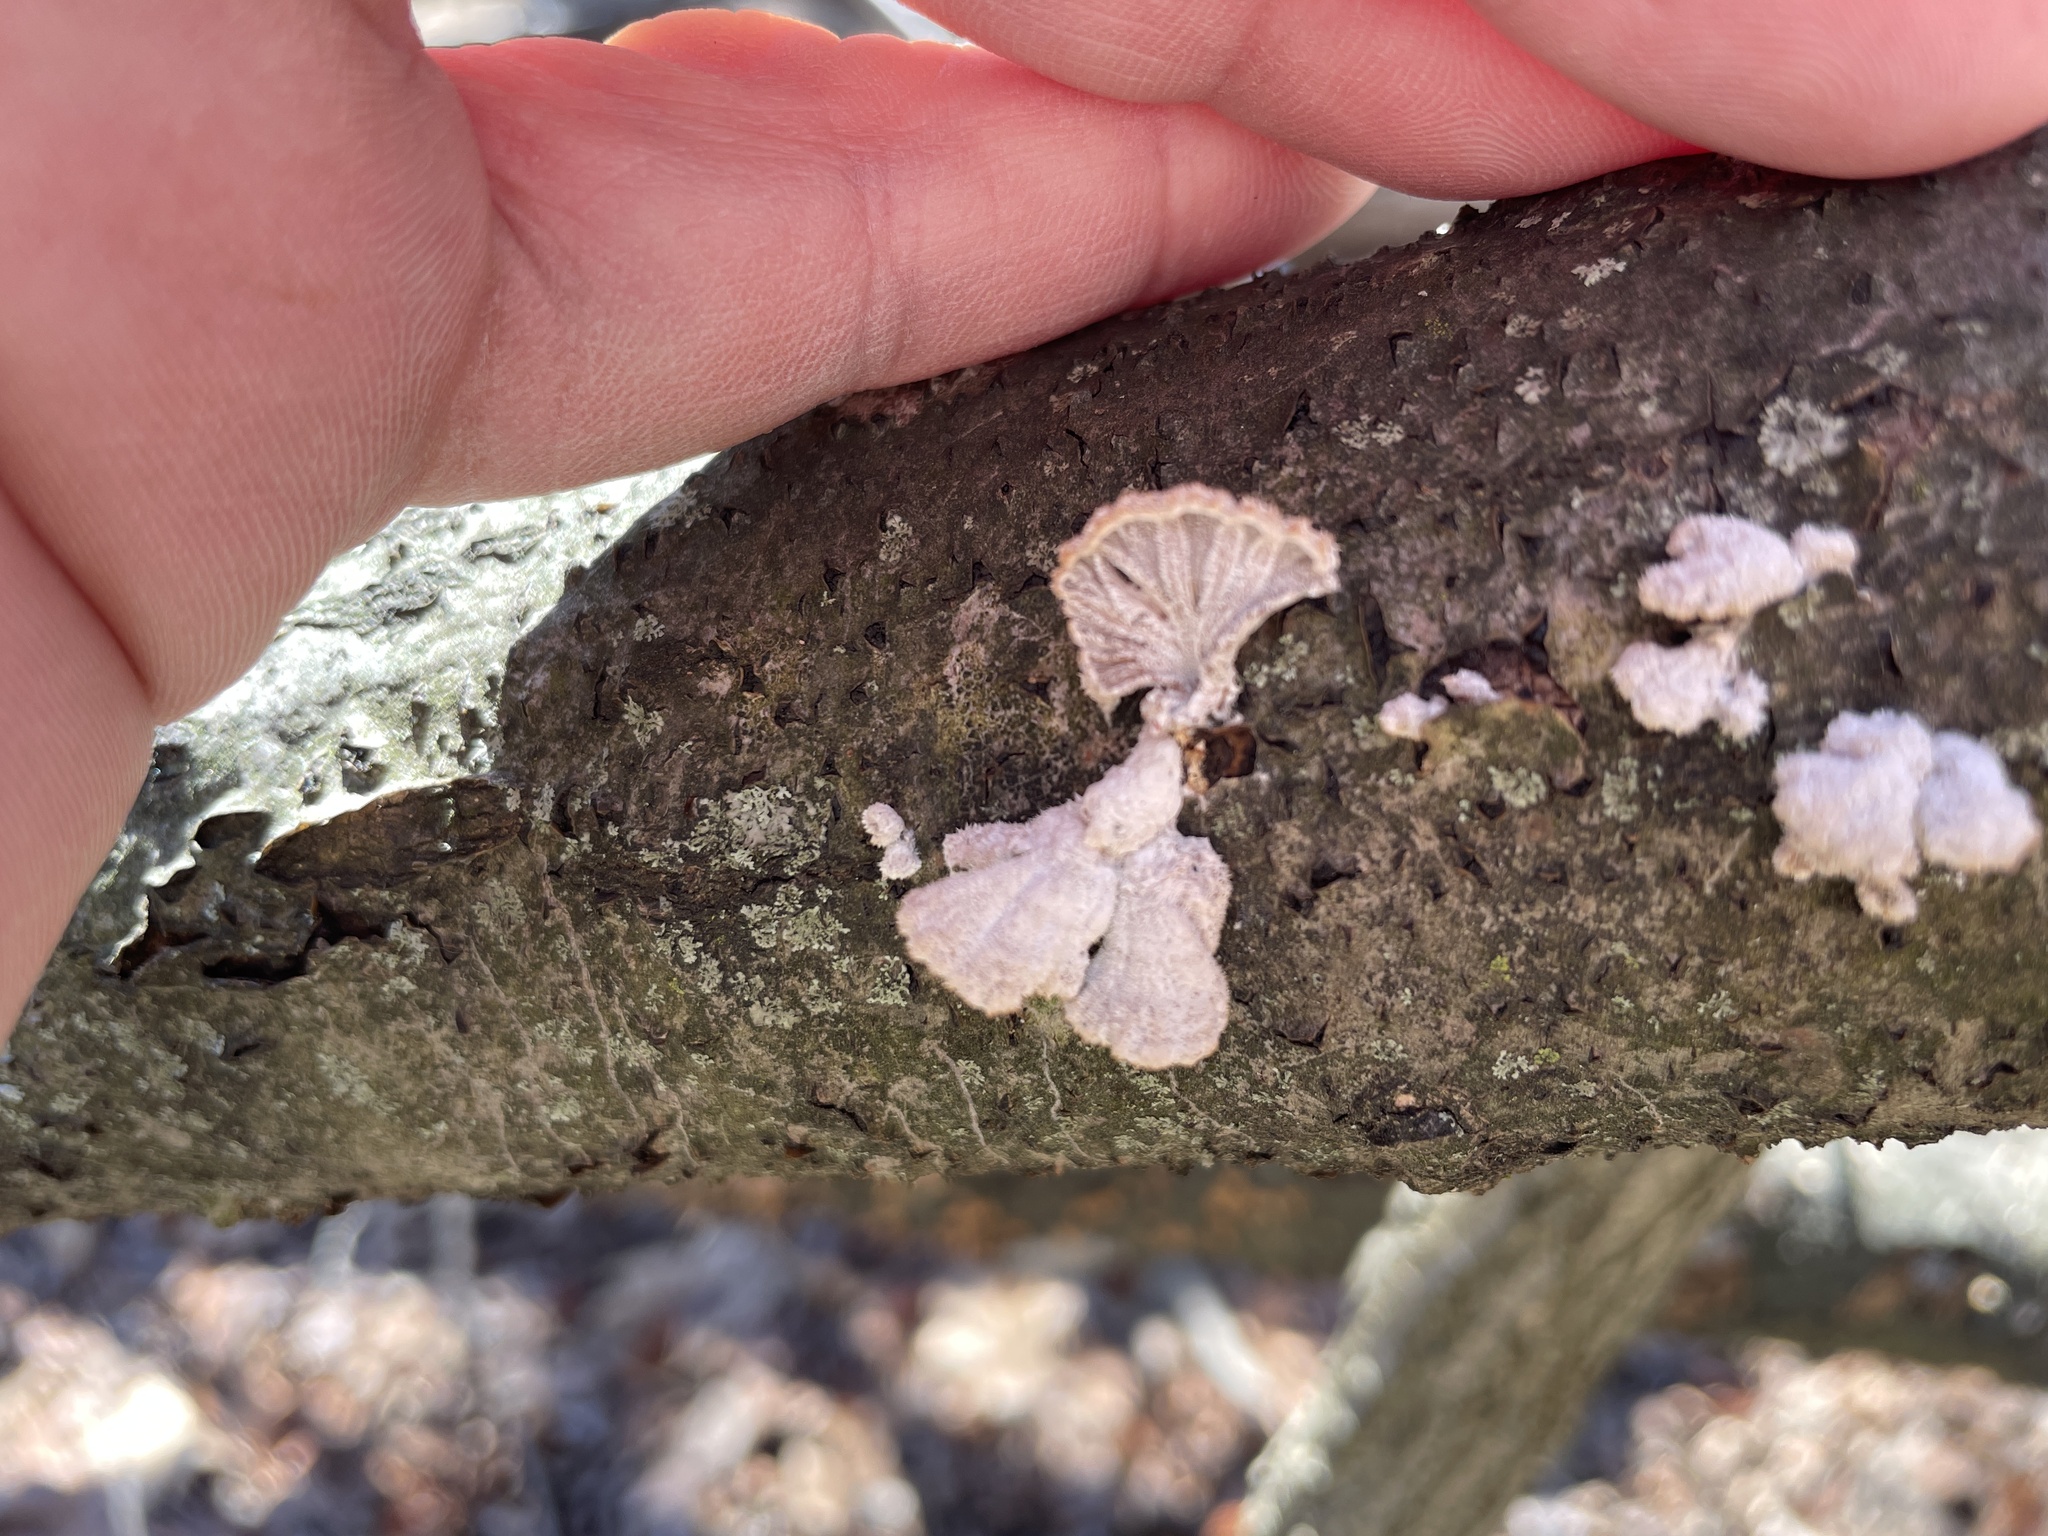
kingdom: Fungi
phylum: Basidiomycota
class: Agaricomycetes
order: Agaricales
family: Schizophyllaceae
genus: Schizophyllum
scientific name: Schizophyllum commune
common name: Common porecrust
